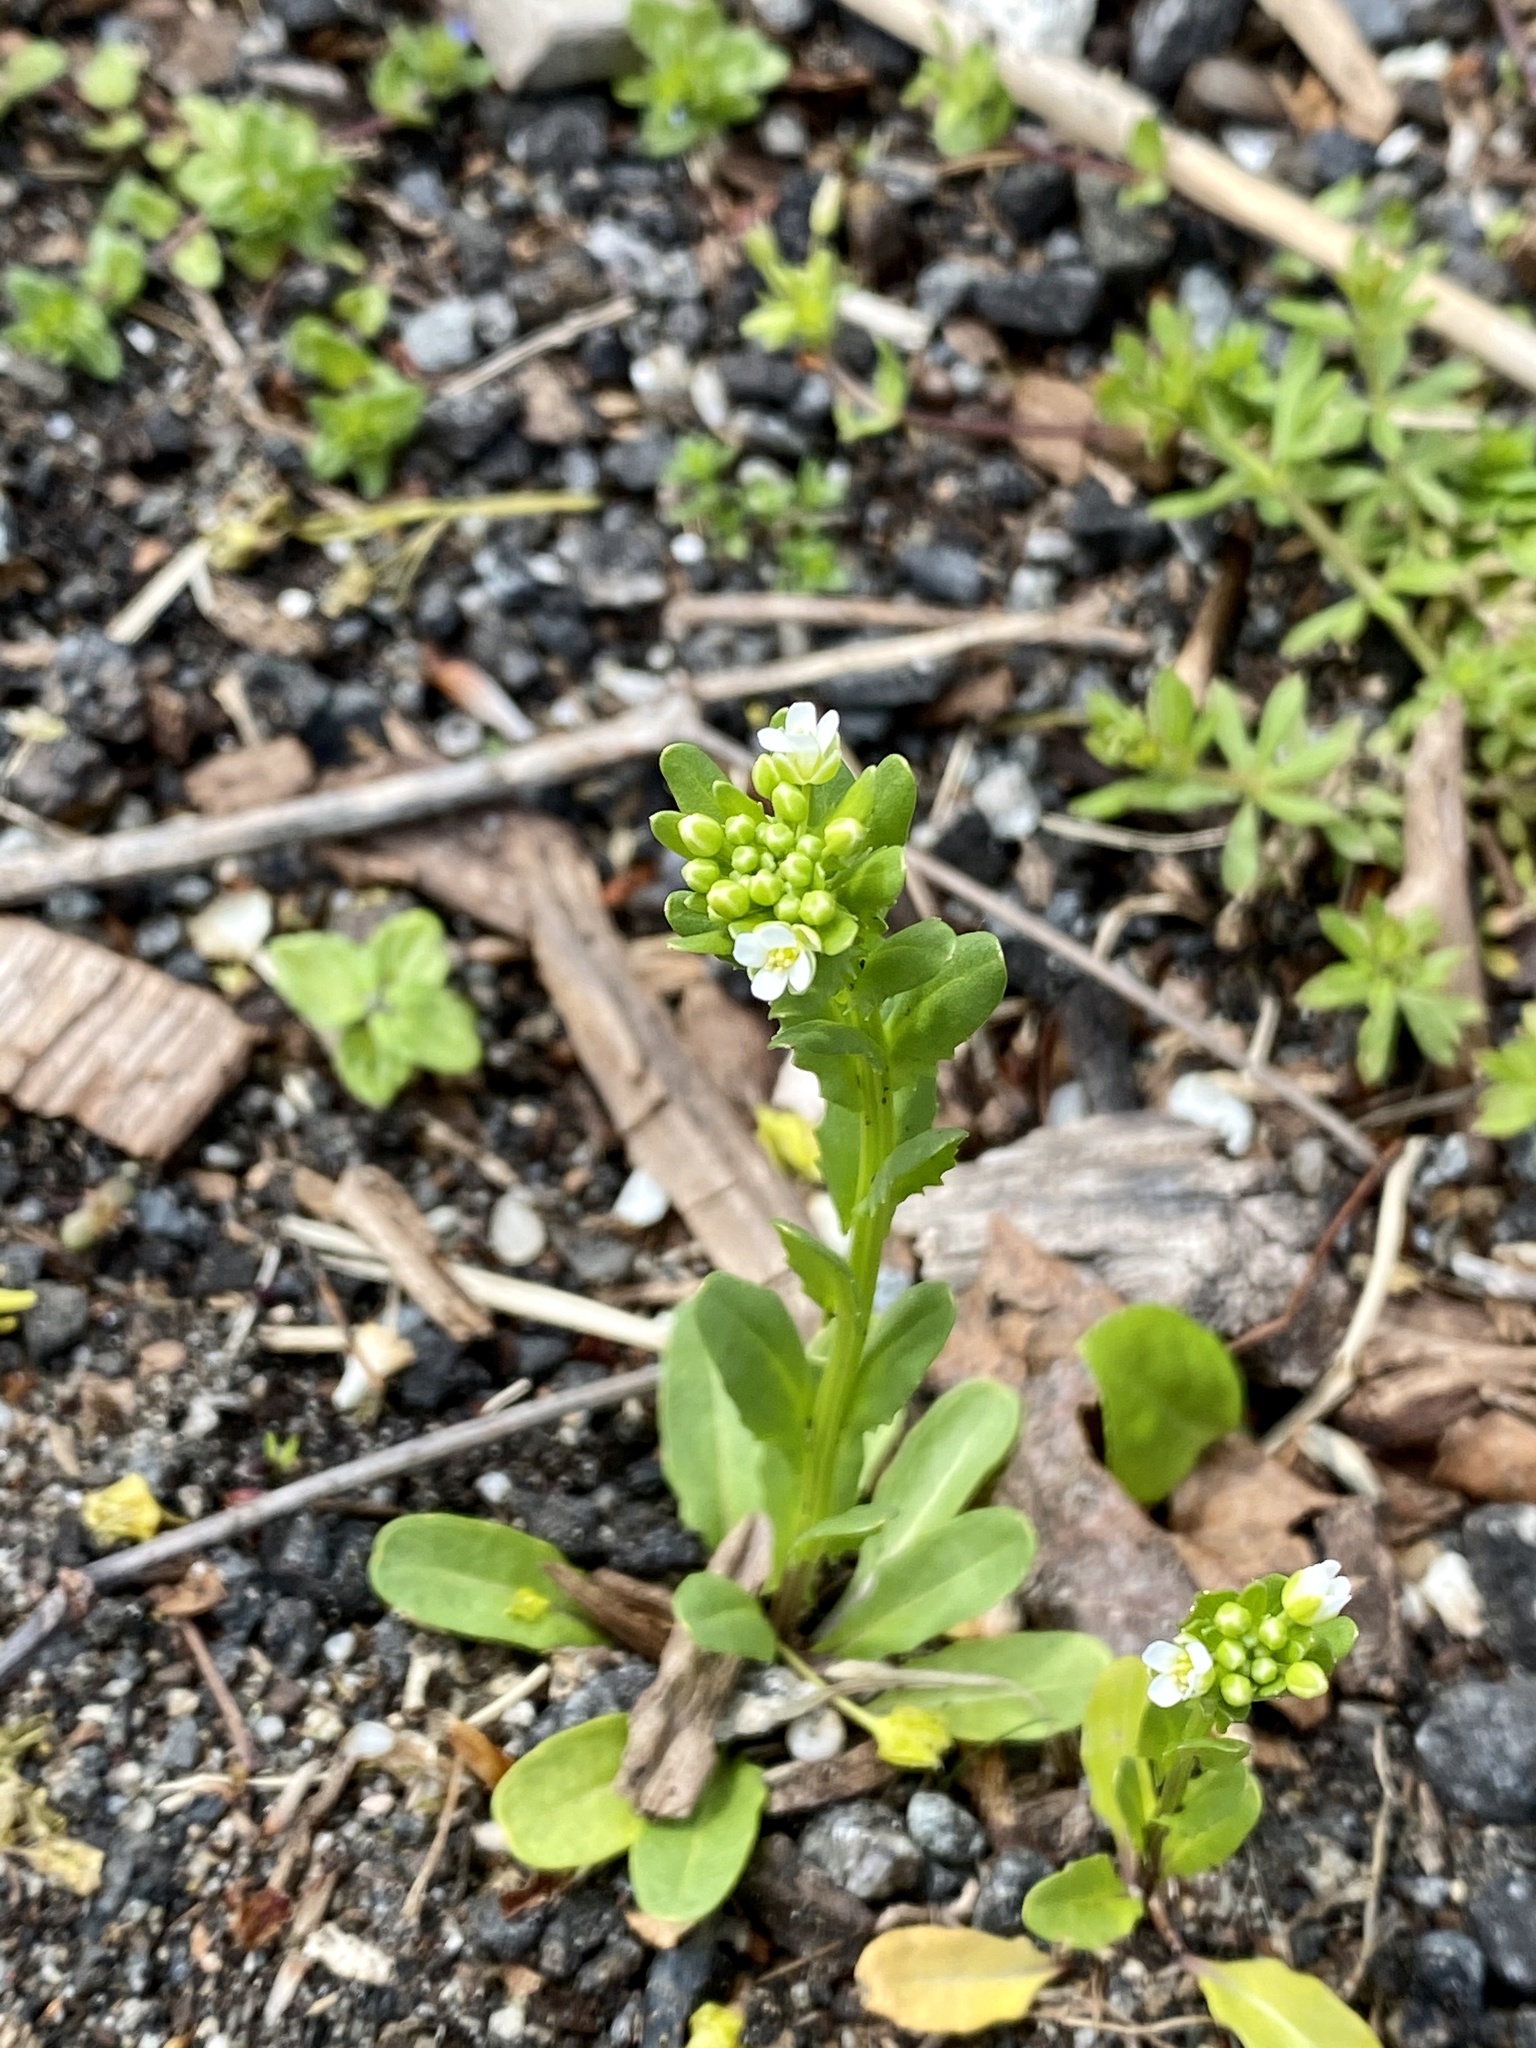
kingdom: Plantae
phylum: Tracheophyta
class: Magnoliopsida
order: Brassicales
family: Brassicaceae
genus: Thlaspi
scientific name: Thlaspi arvense
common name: Field pennycress
